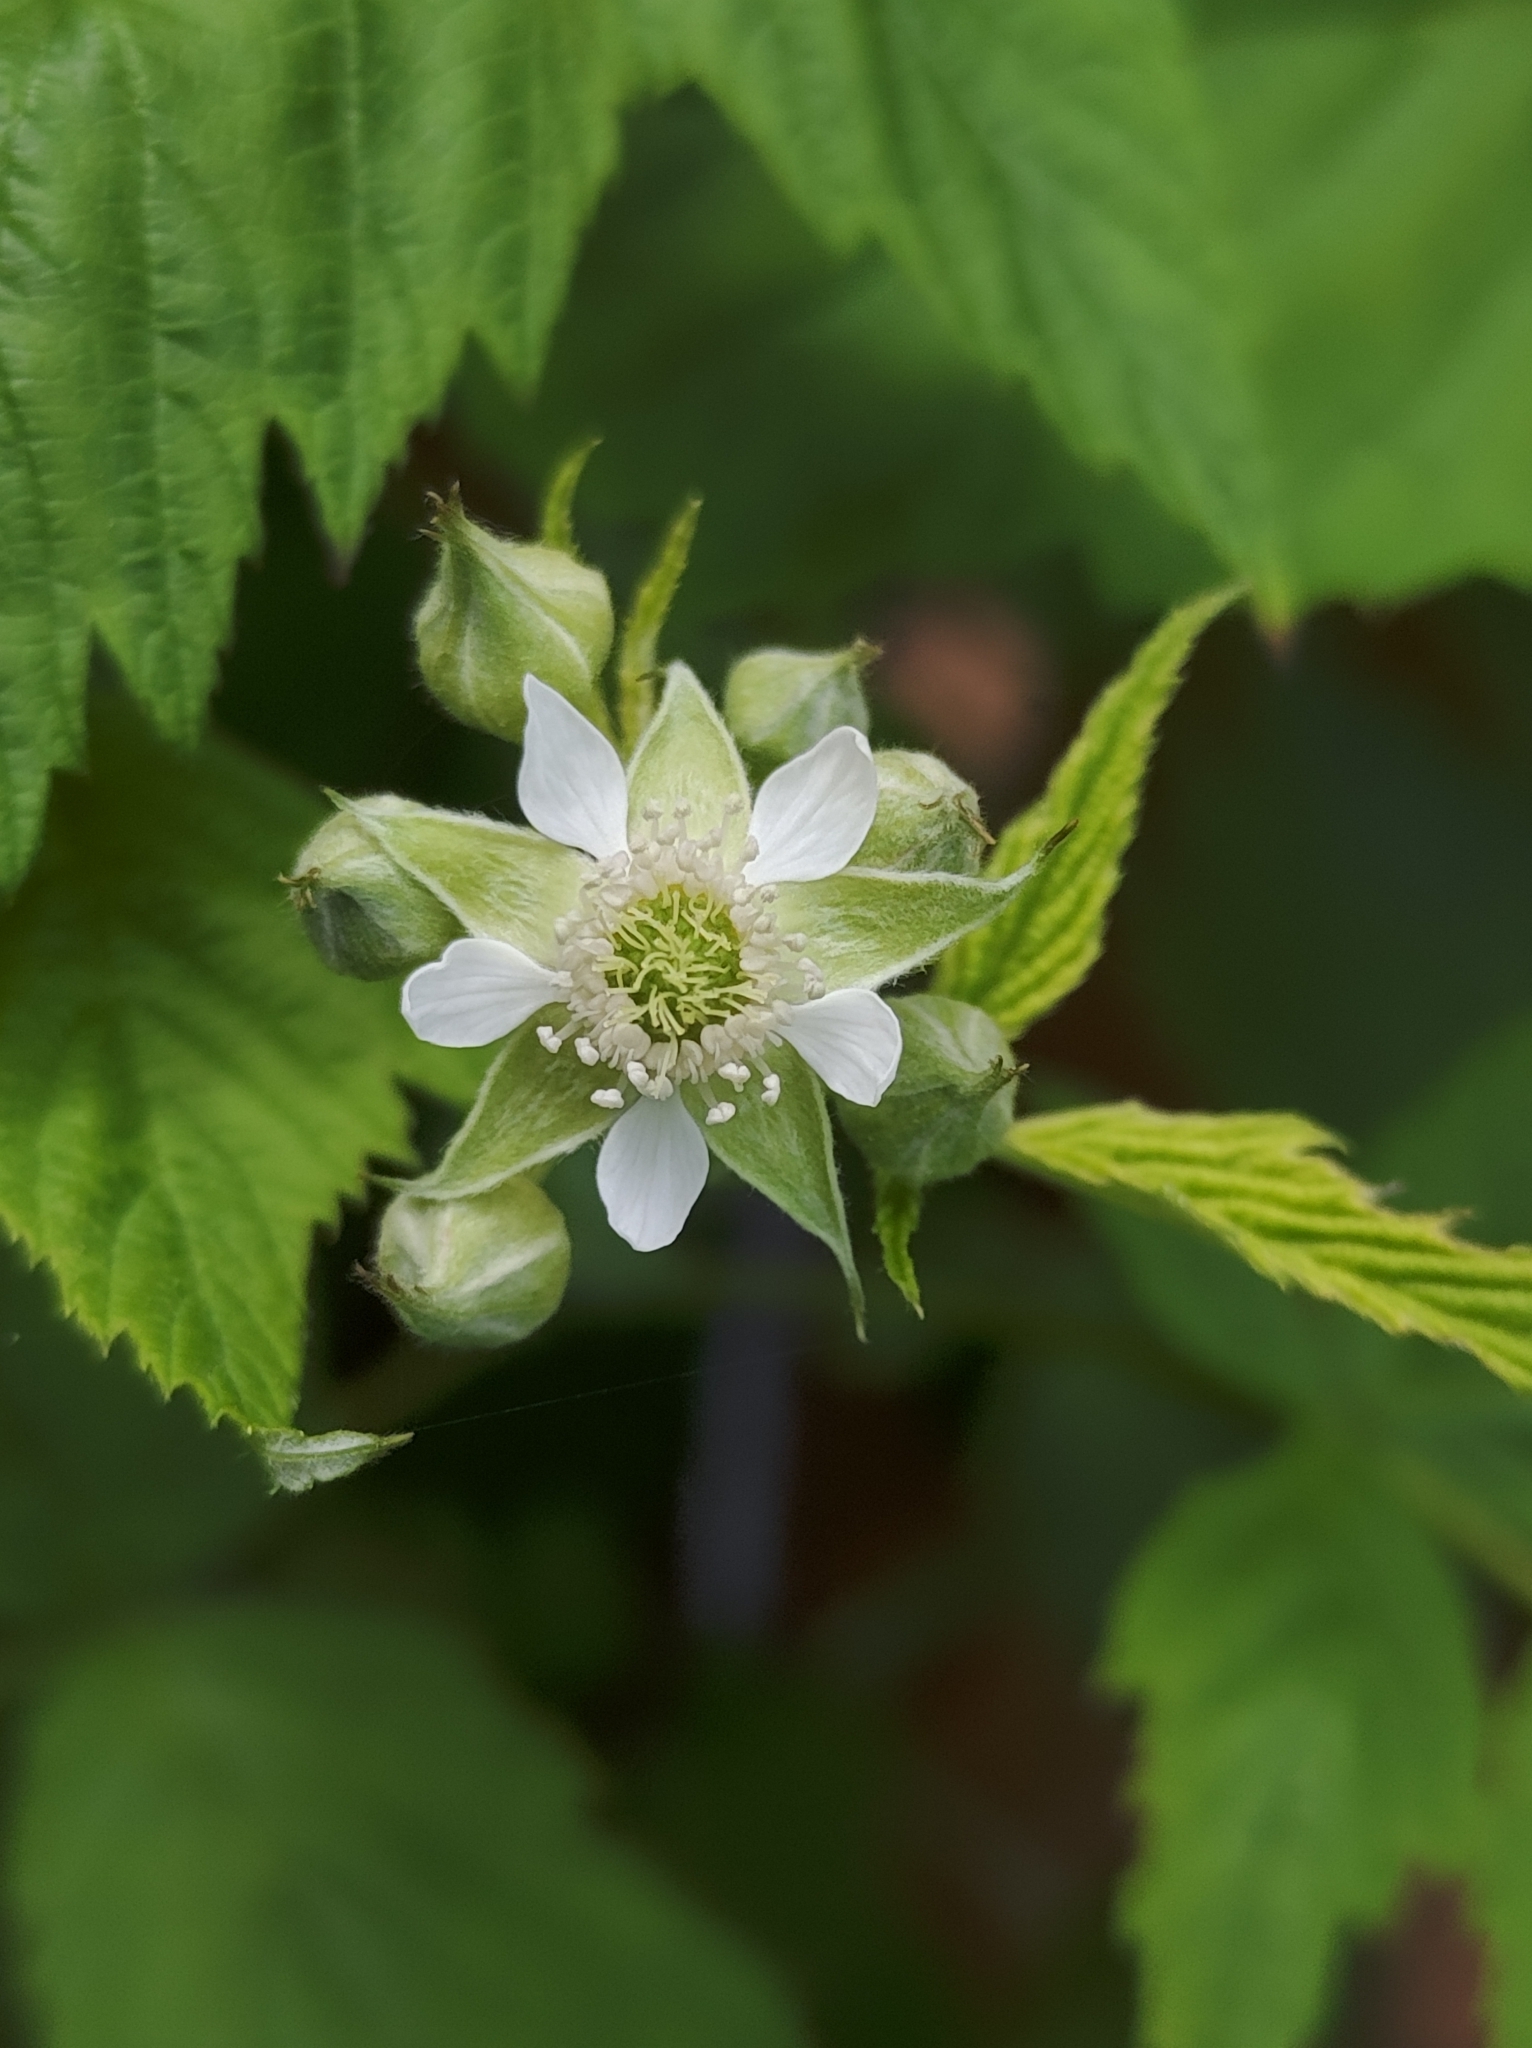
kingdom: Plantae
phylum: Tracheophyta
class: Magnoliopsida
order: Rosales
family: Rosaceae
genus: Rubus
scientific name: Rubus occidentalis
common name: Black raspberry
